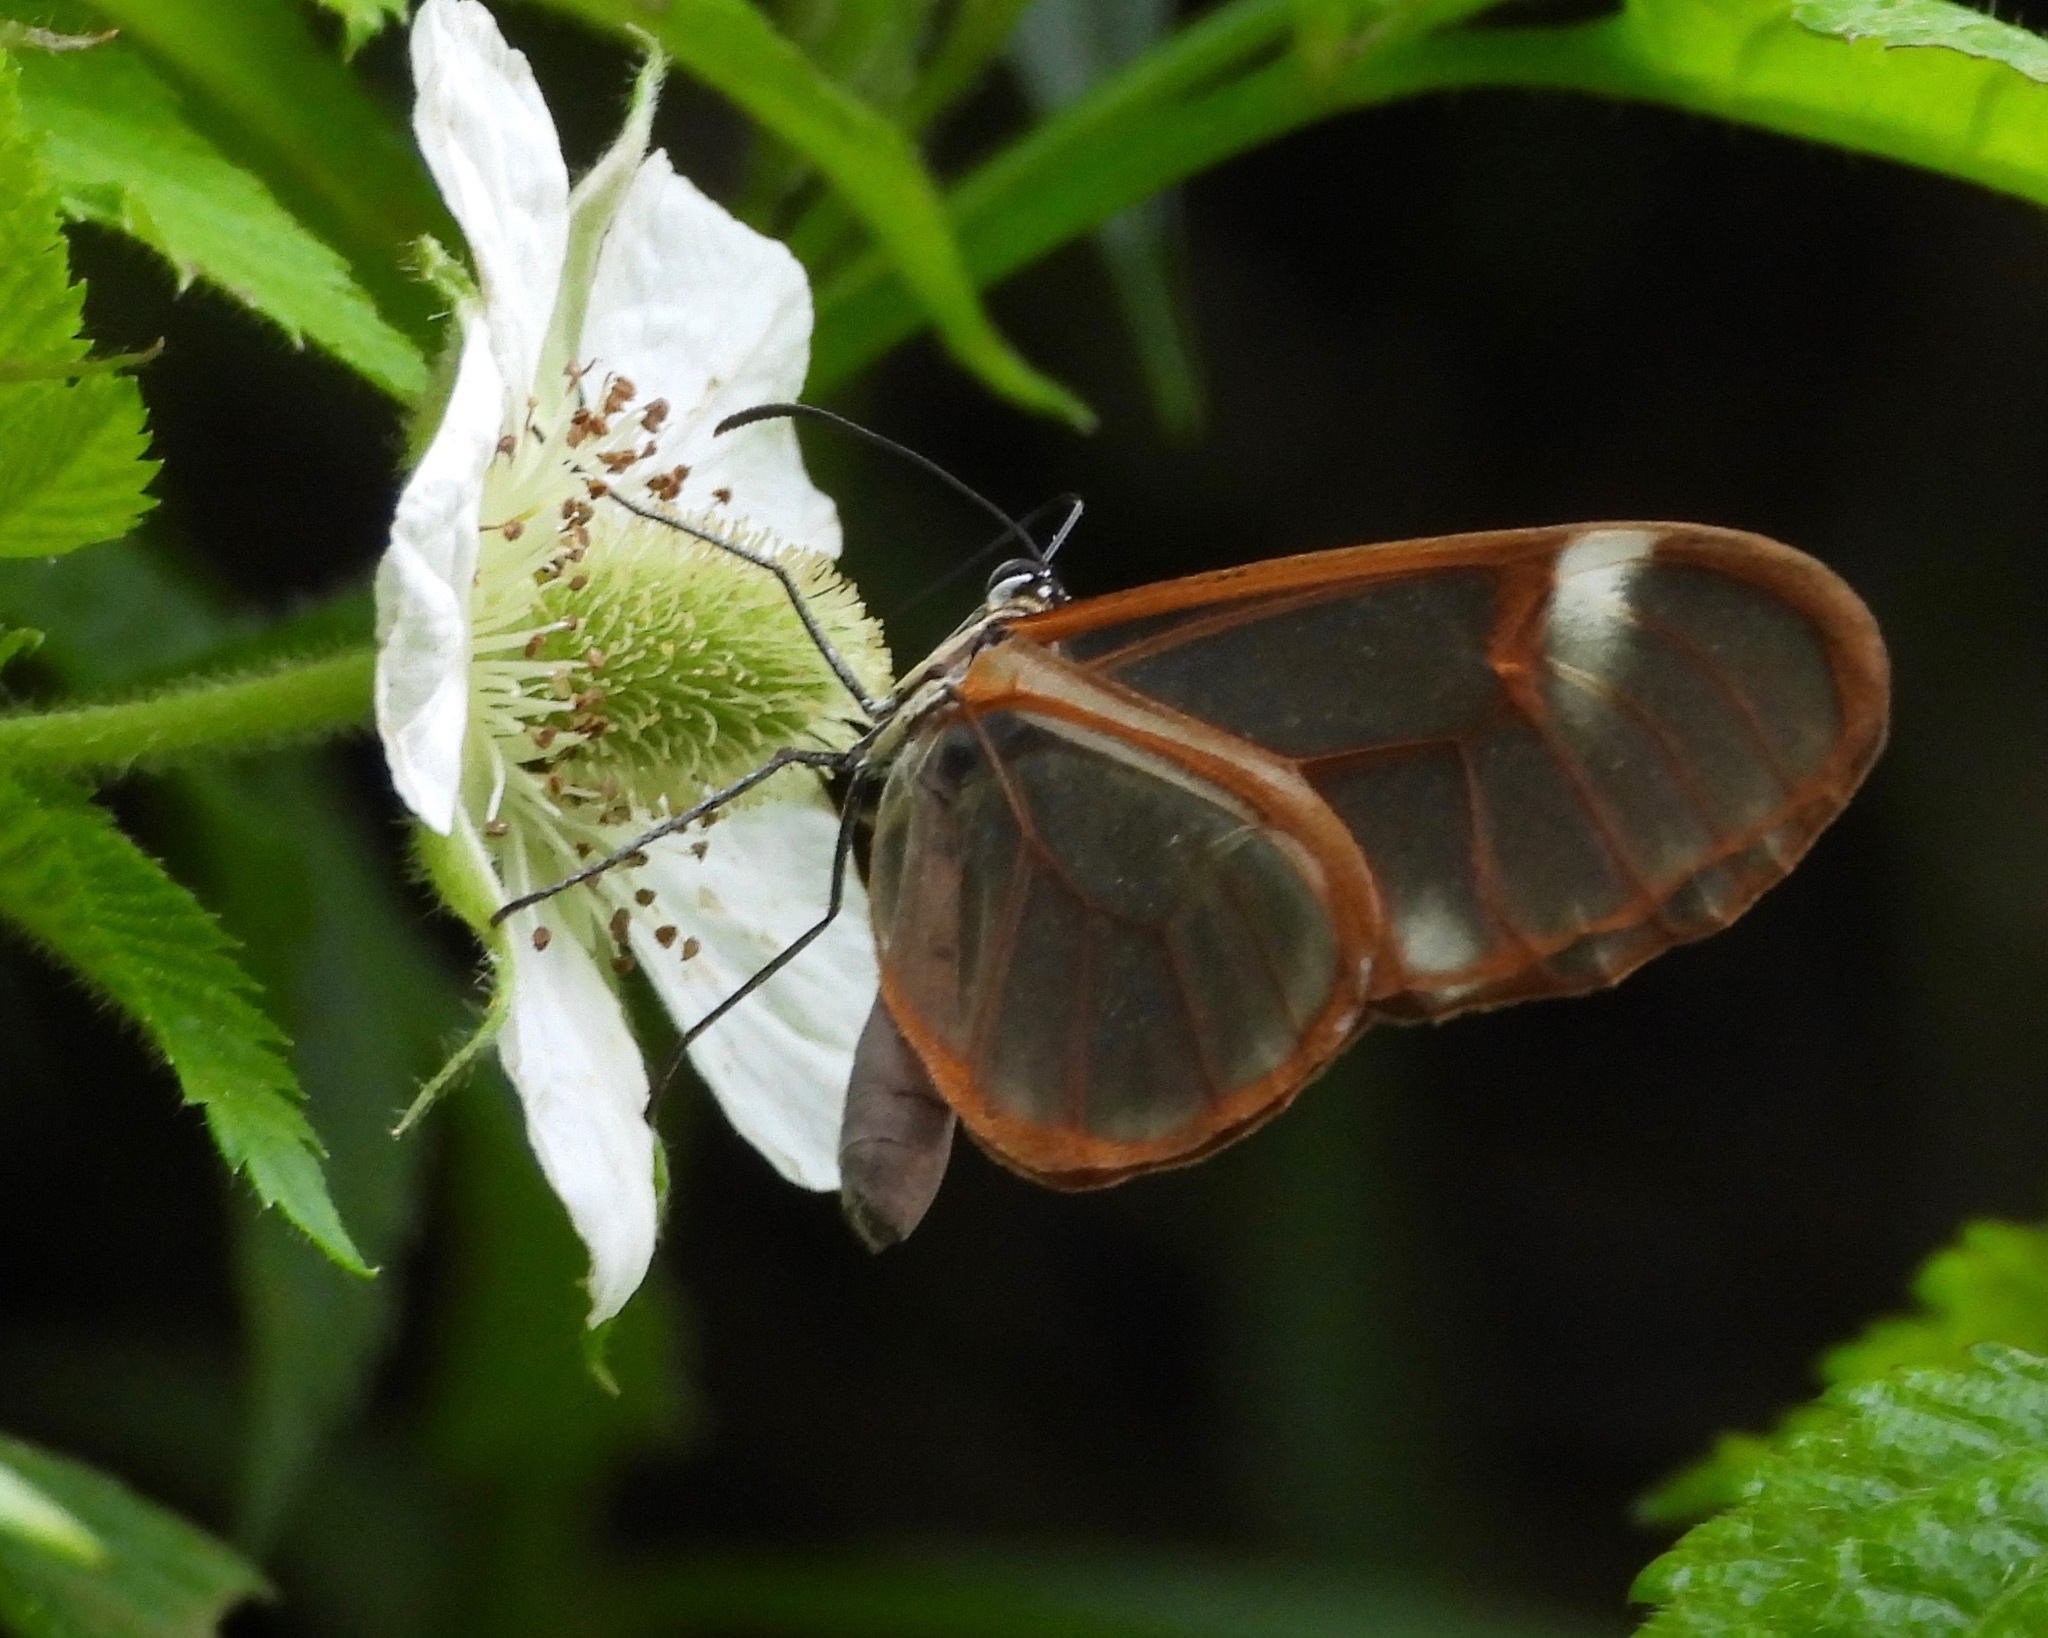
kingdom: Animalia
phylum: Arthropoda
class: Insecta
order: Lepidoptera
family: Nymphalidae
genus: Episcada
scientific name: Episcada salvinia
